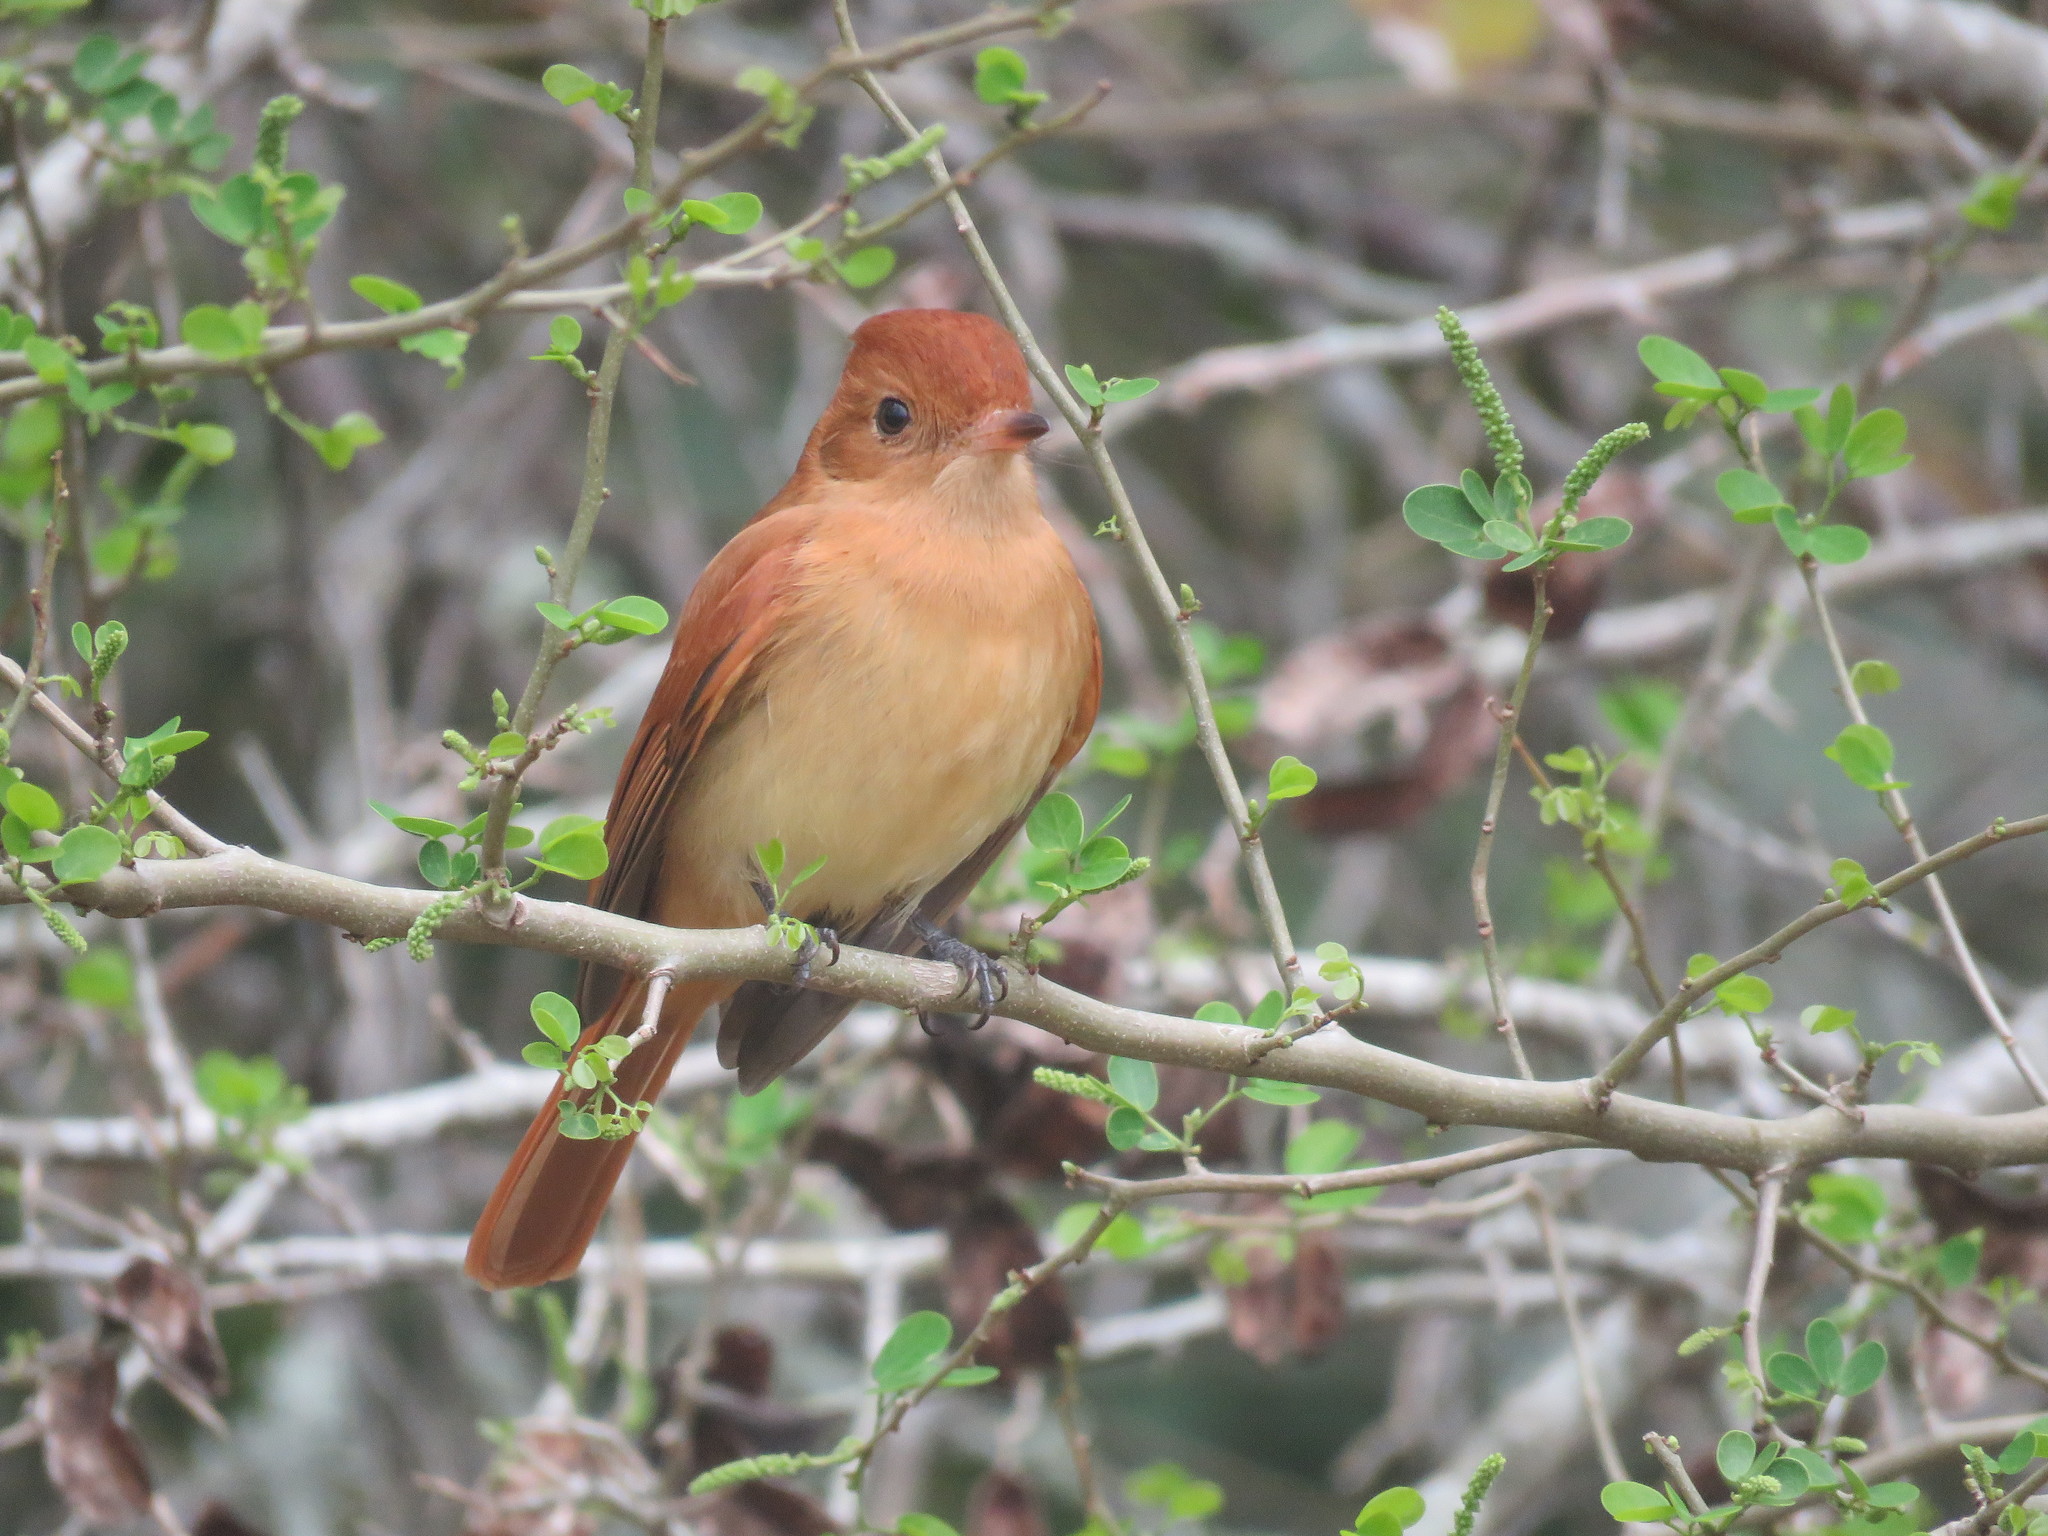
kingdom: Animalia
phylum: Chordata
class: Aves
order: Passeriformes
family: Tyrannidae
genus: Casiornis
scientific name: Casiornis rufus
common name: Rufous casiornis
